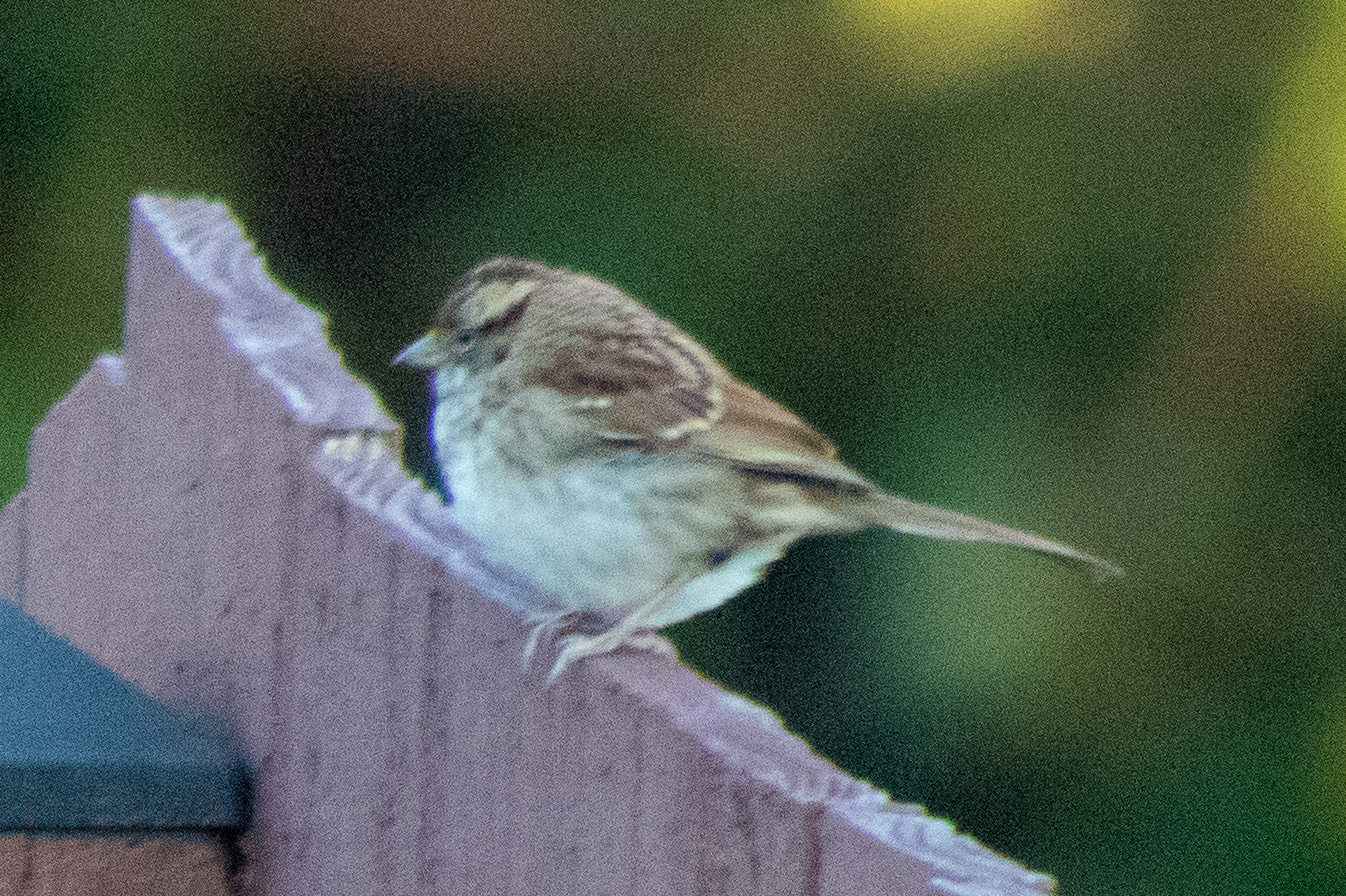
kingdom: Animalia
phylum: Chordata
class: Aves
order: Passeriformes
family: Passerellidae
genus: Zonotrichia
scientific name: Zonotrichia albicollis
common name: White-throated sparrow
